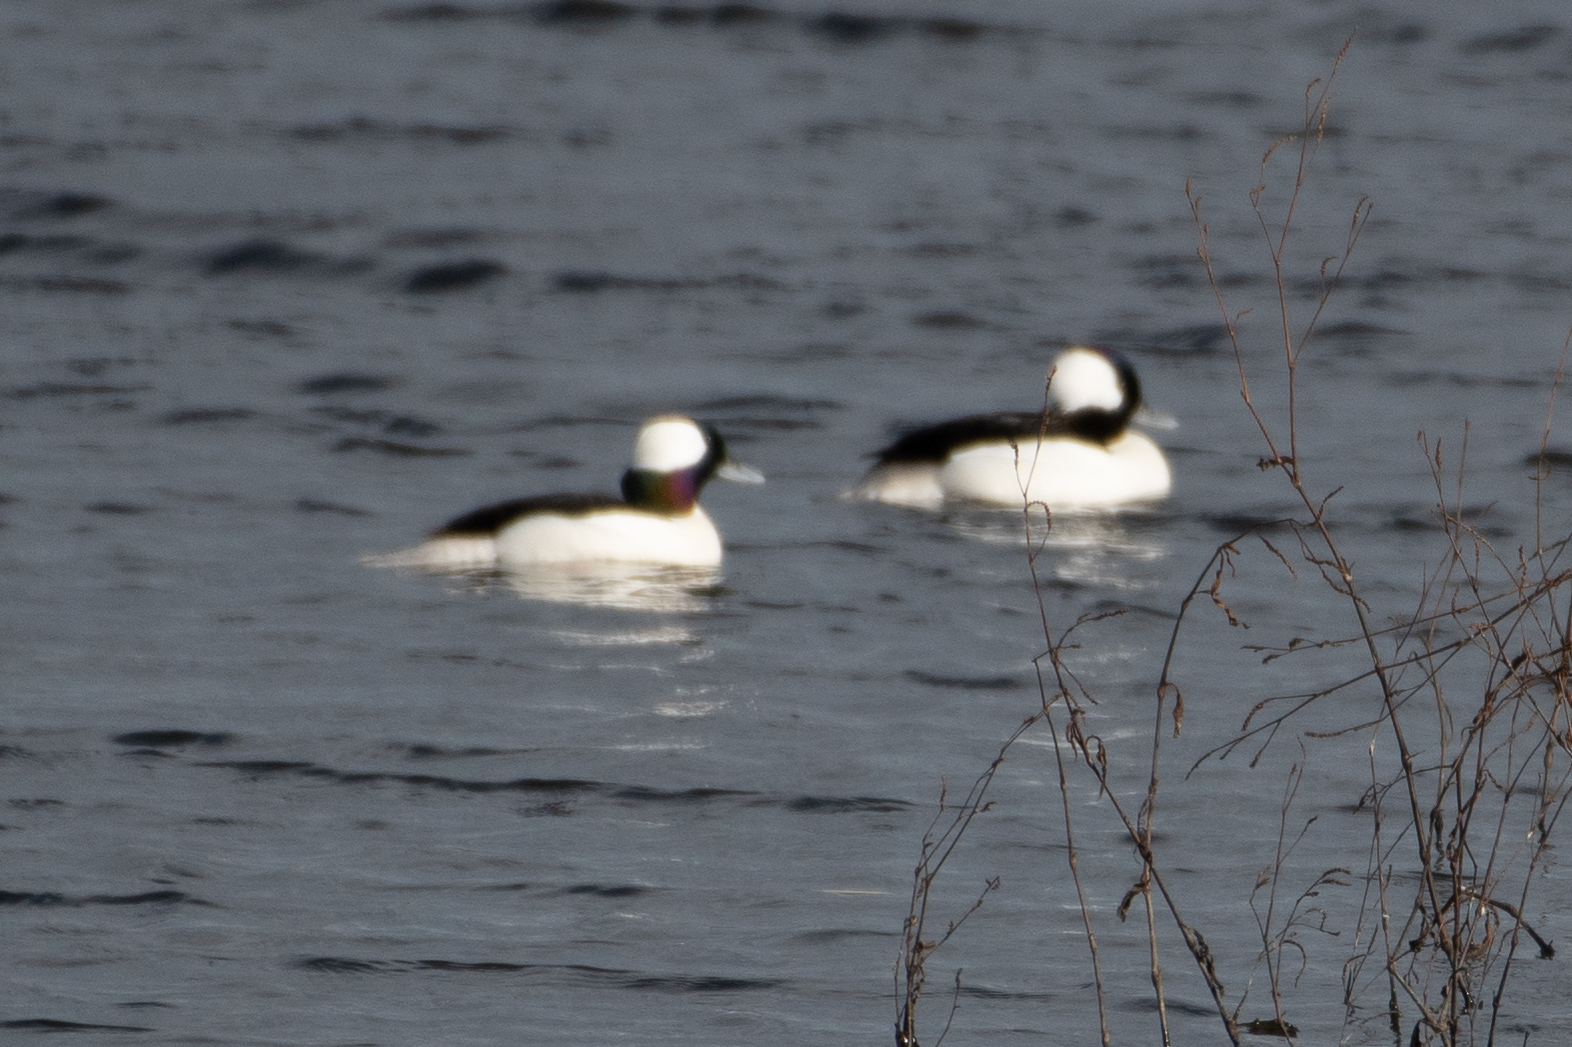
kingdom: Animalia
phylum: Chordata
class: Aves
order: Anseriformes
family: Anatidae
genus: Bucephala
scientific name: Bucephala albeola
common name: Bufflehead
